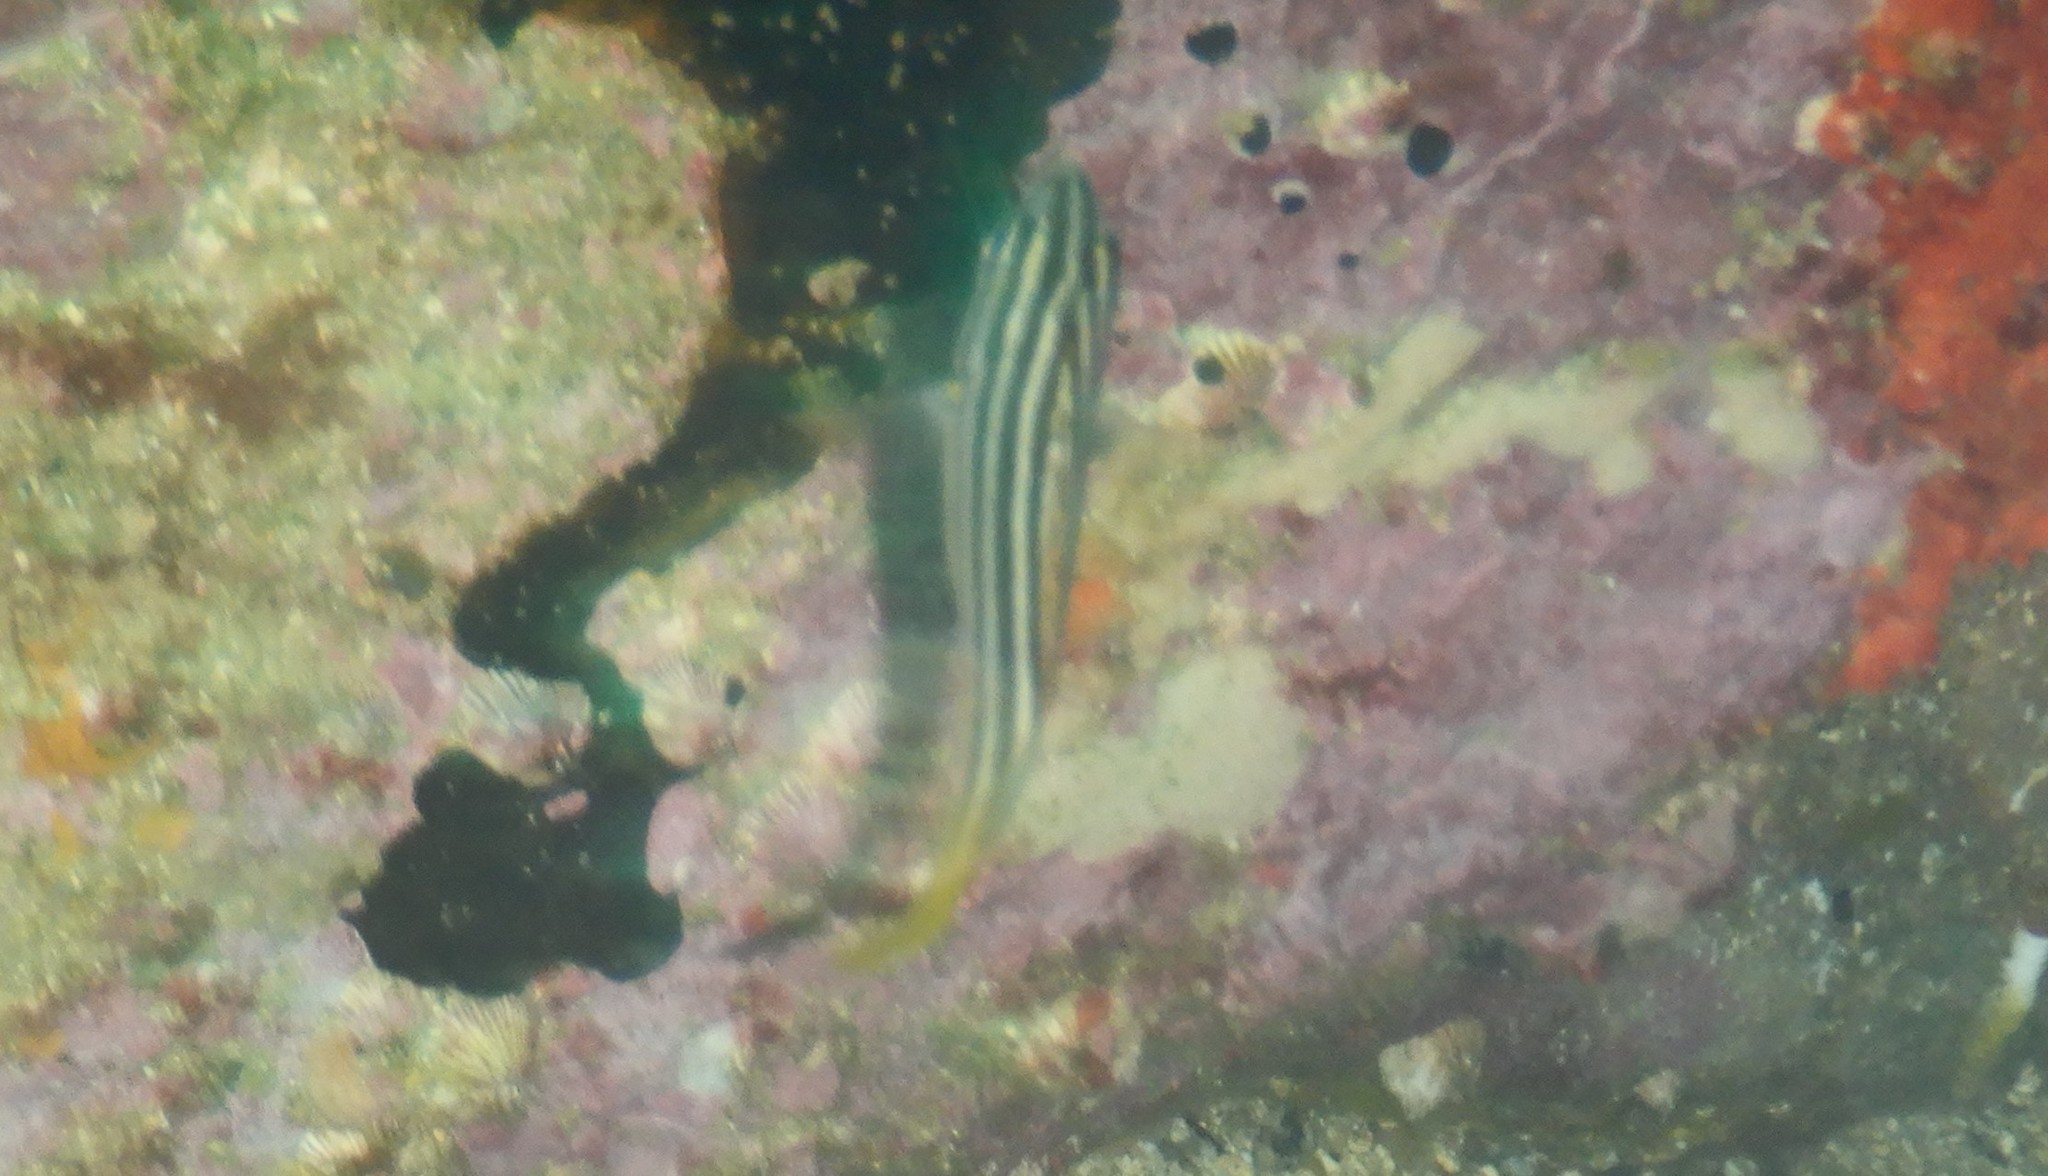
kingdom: Animalia
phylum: Chordata
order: Perciformes
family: Kyphosidae
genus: Atypichthys
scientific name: Atypichthys strigatus
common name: Australian mado
